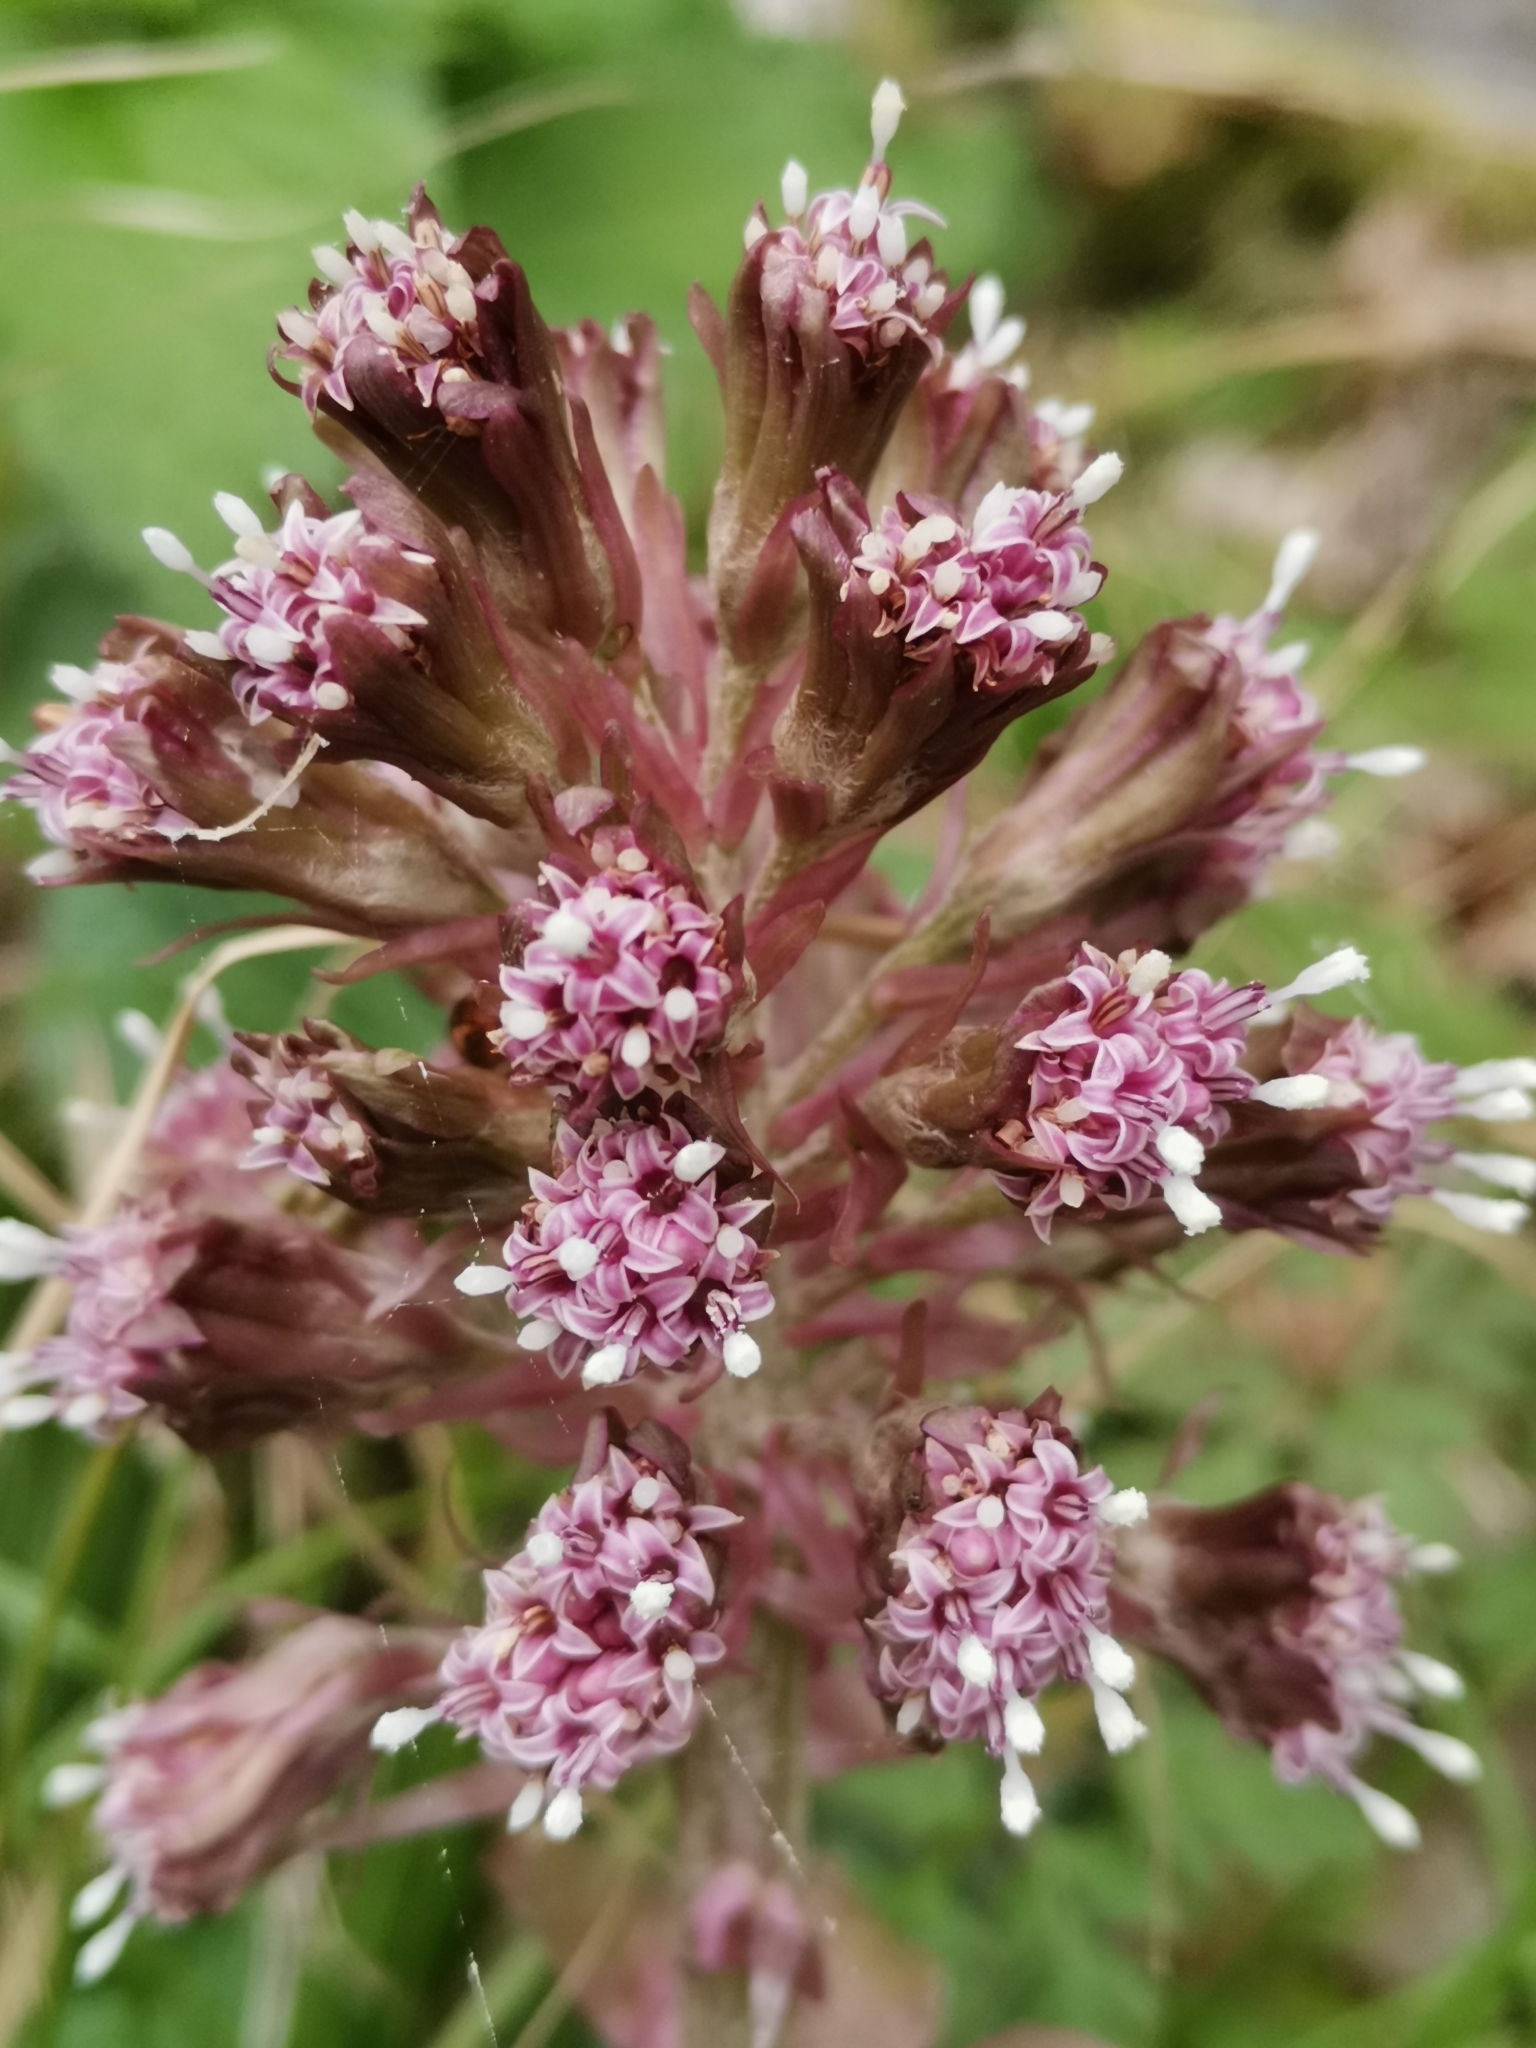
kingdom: Plantae
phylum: Tracheophyta
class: Magnoliopsida
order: Asterales
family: Asteraceae
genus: Petasites
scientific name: Petasites hybridus
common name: Butterbur
